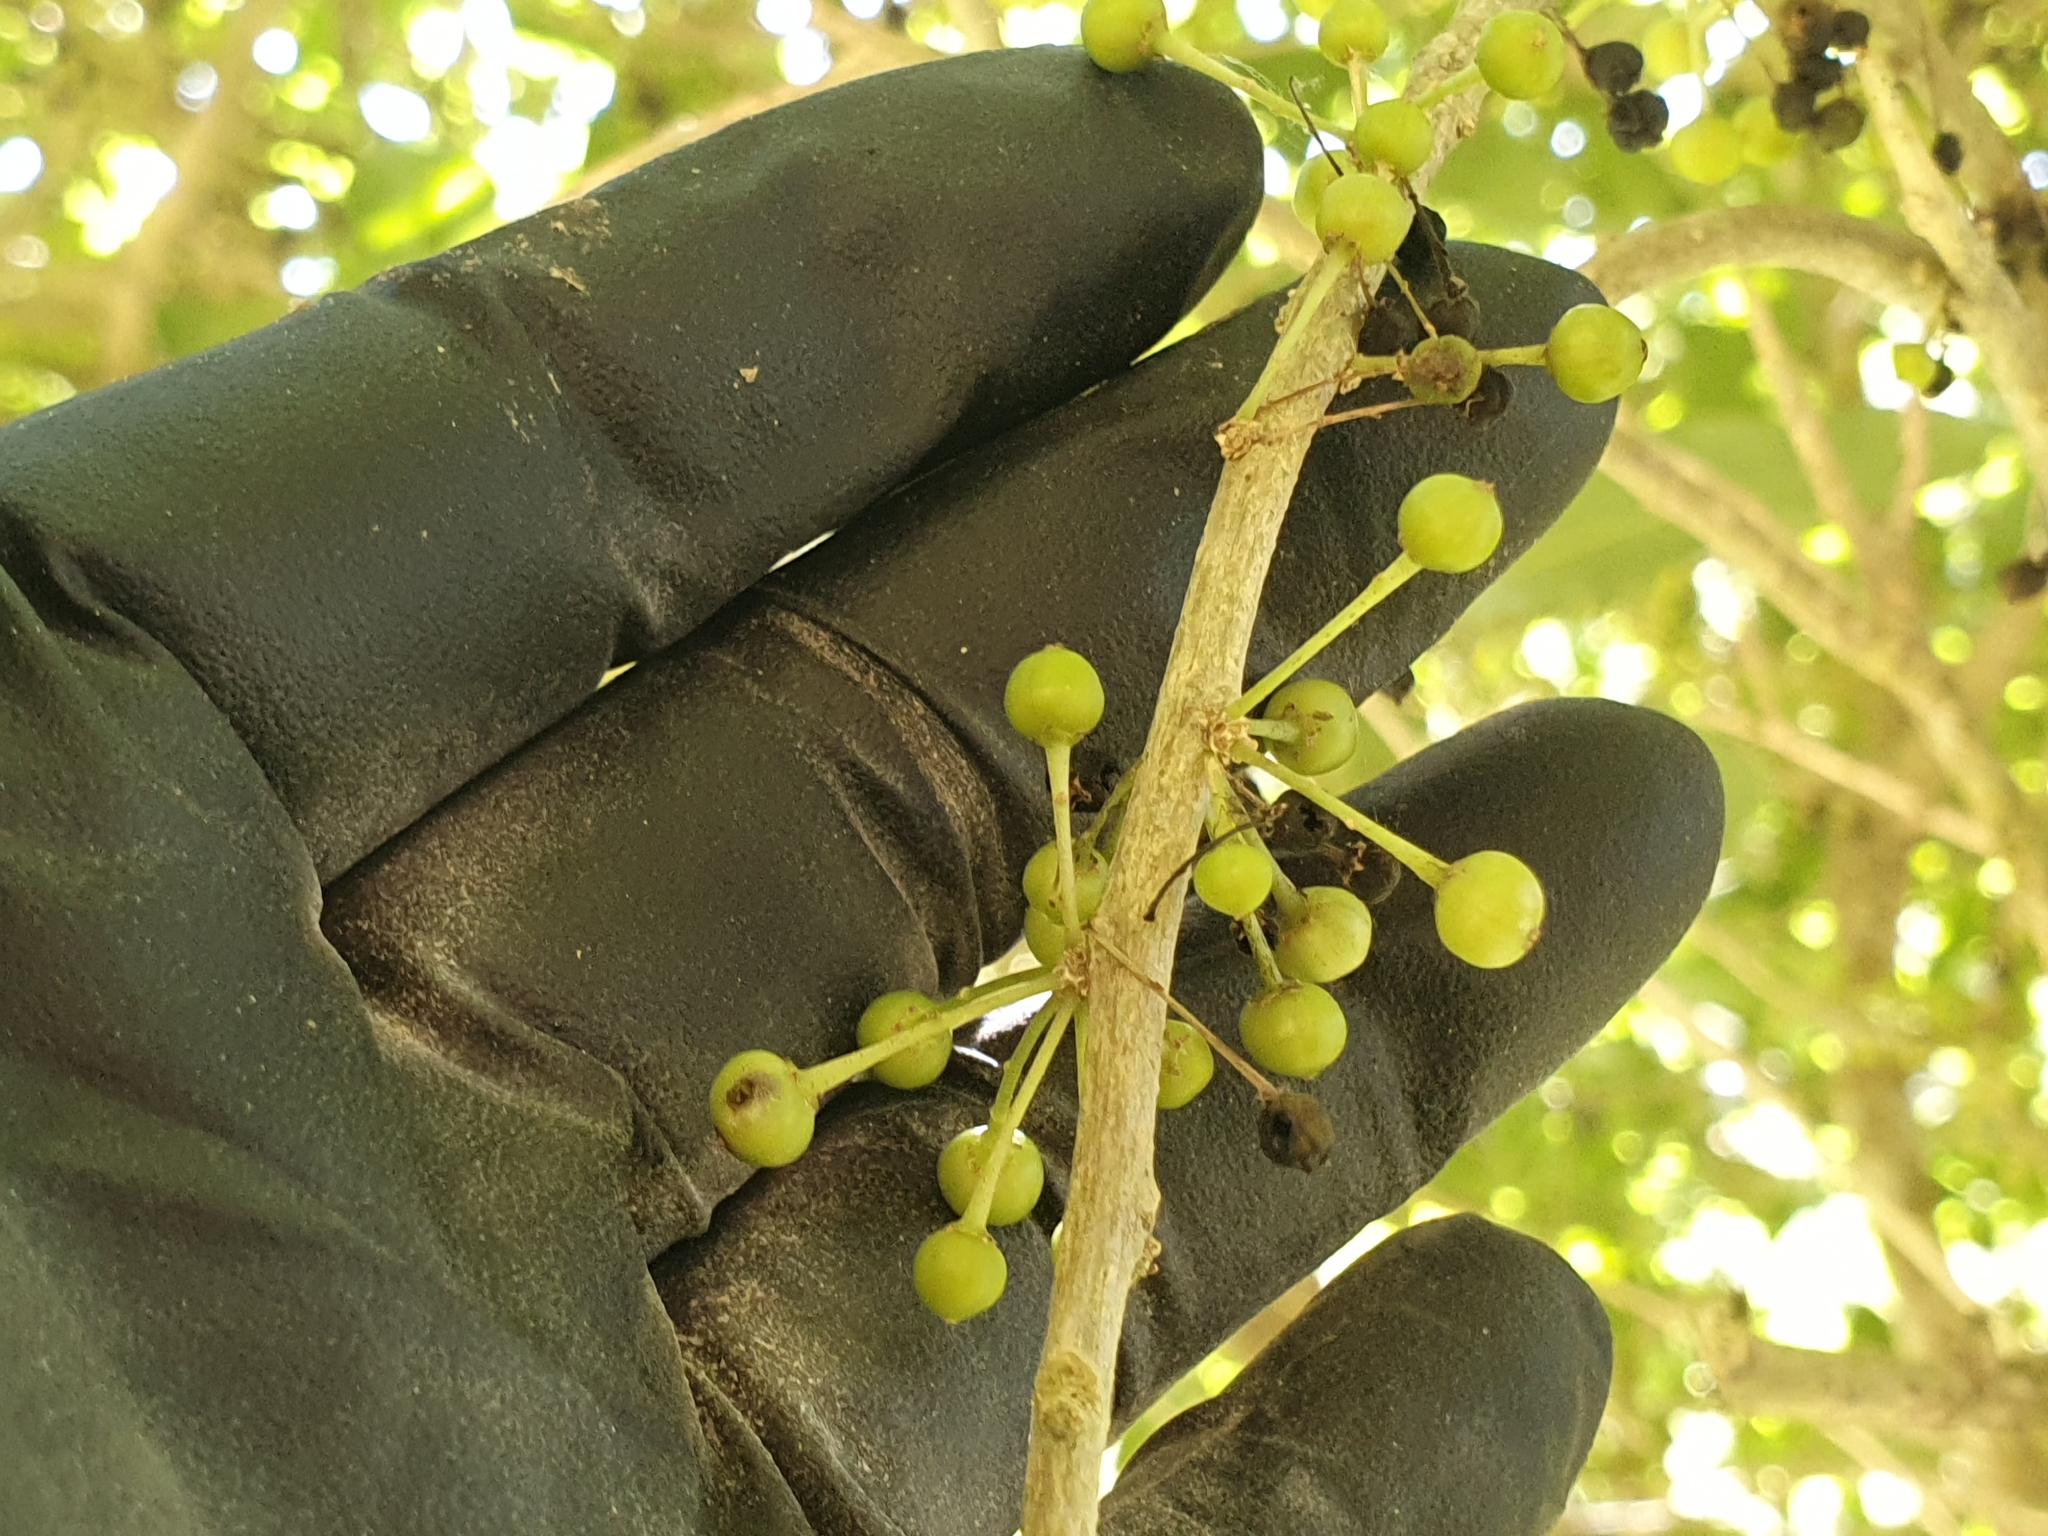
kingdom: Plantae
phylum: Tracheophyta
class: Magnoliopsida
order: Malpighiales
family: Violaceae
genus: Melicytus
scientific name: Melicytus ramiflorus
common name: Mahoe
